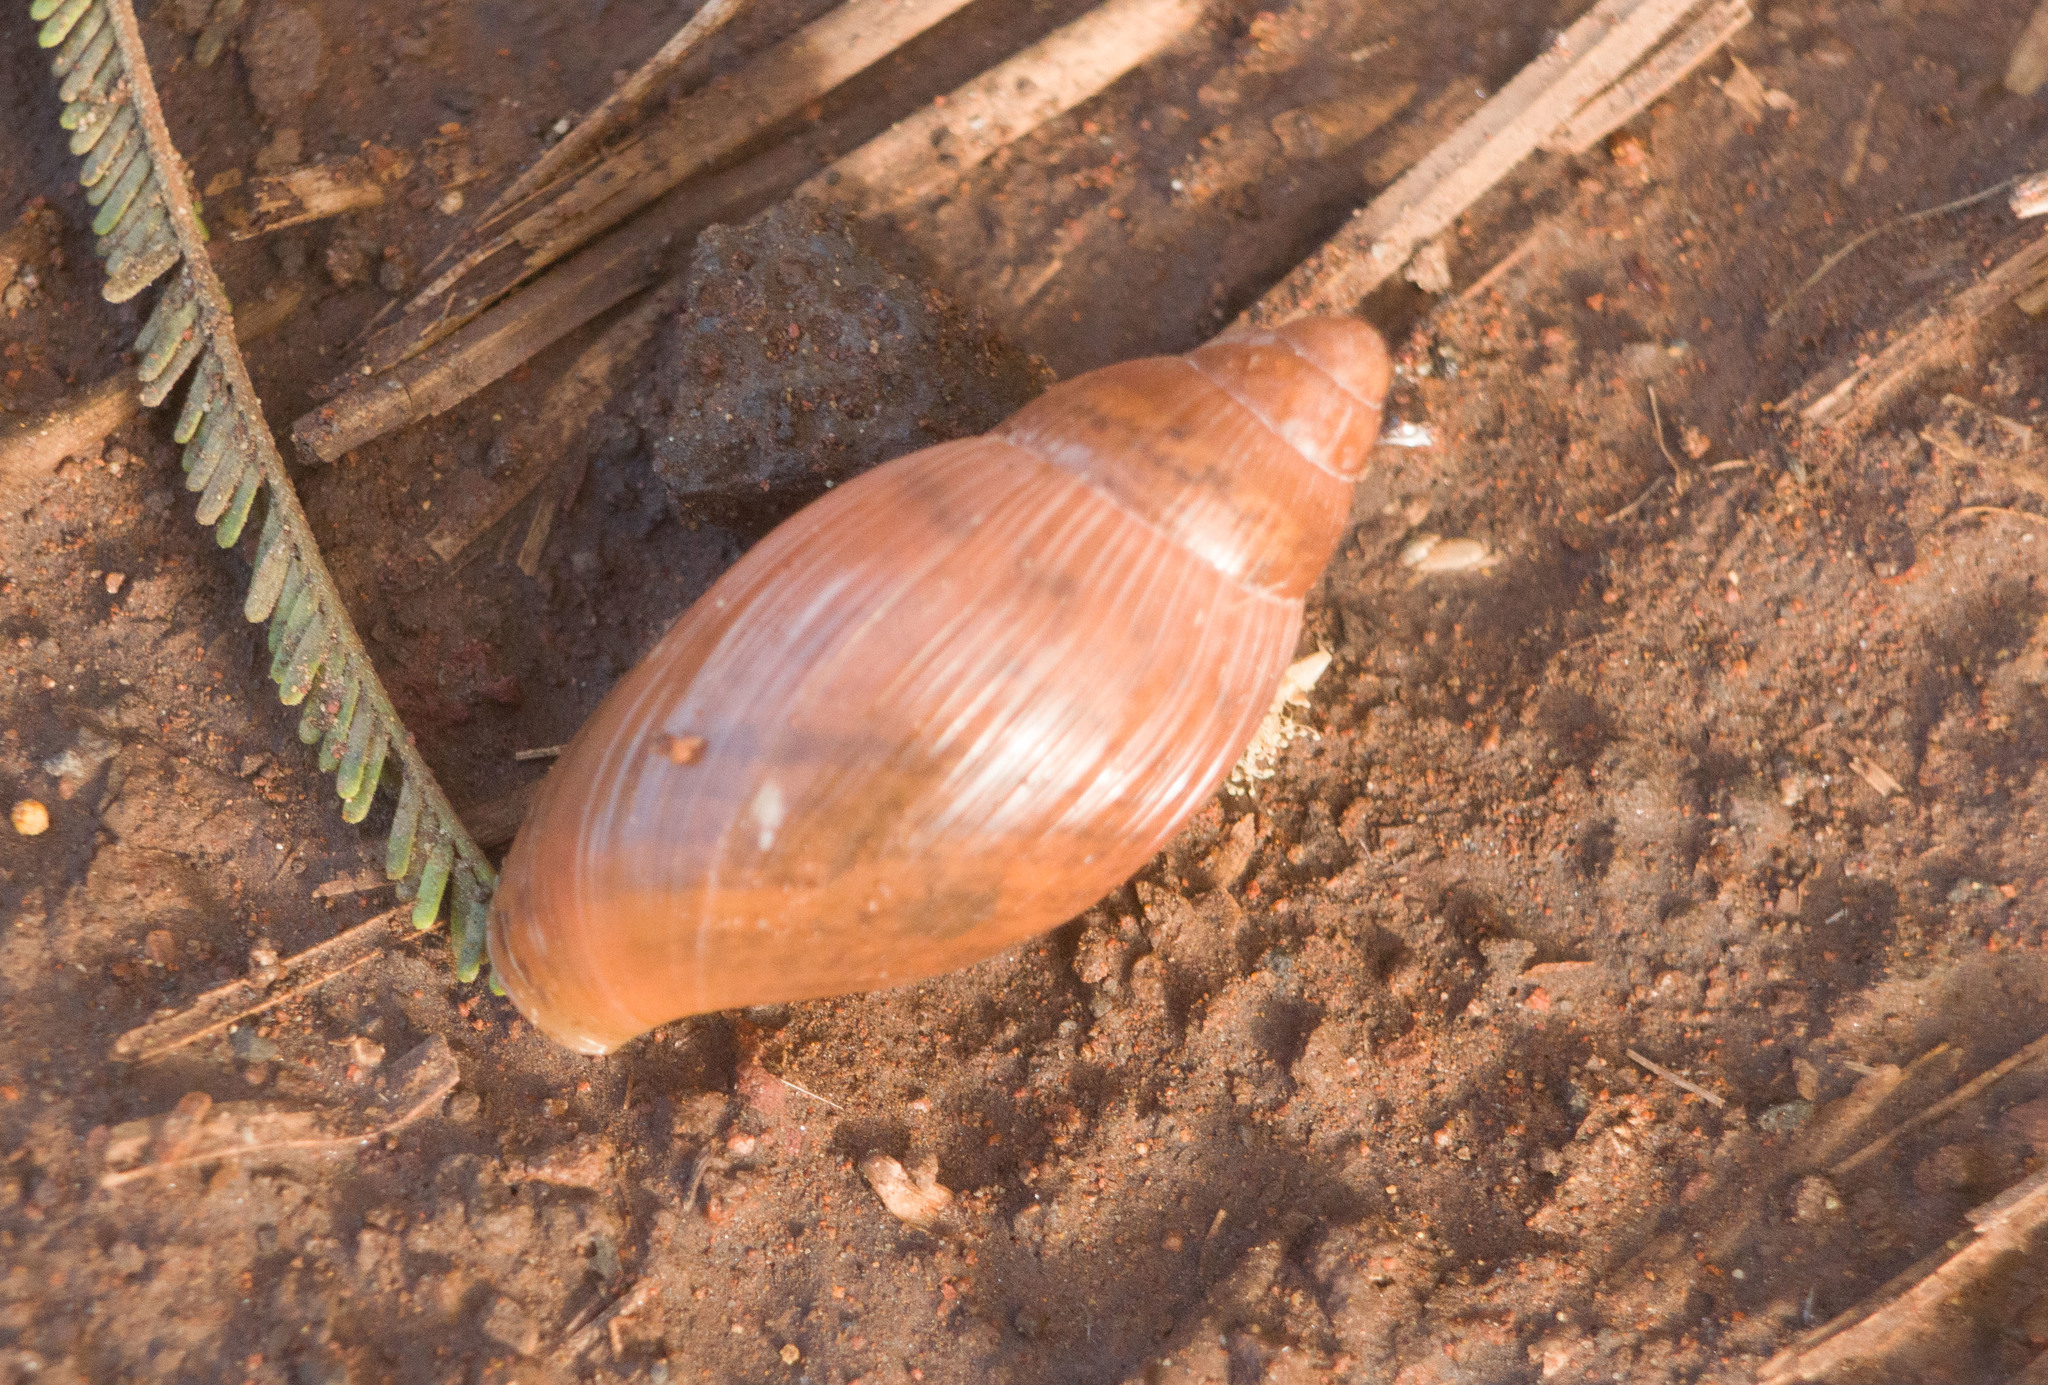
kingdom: Animalia
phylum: Mollusca
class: Gastropoda
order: Stylommatophora
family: Spiraxidae
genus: Euglandina
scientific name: Euglandina rosea
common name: Rosy wolfsnail
